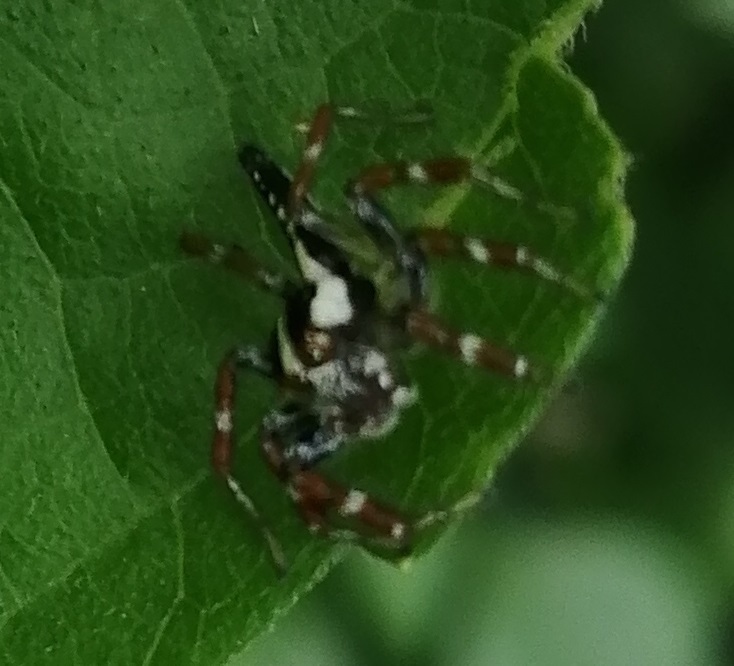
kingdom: Animalia
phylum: Arthropoda
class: Arachnida
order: Araneae
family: Salticidae
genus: Telamonia
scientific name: Telamonia festiva
